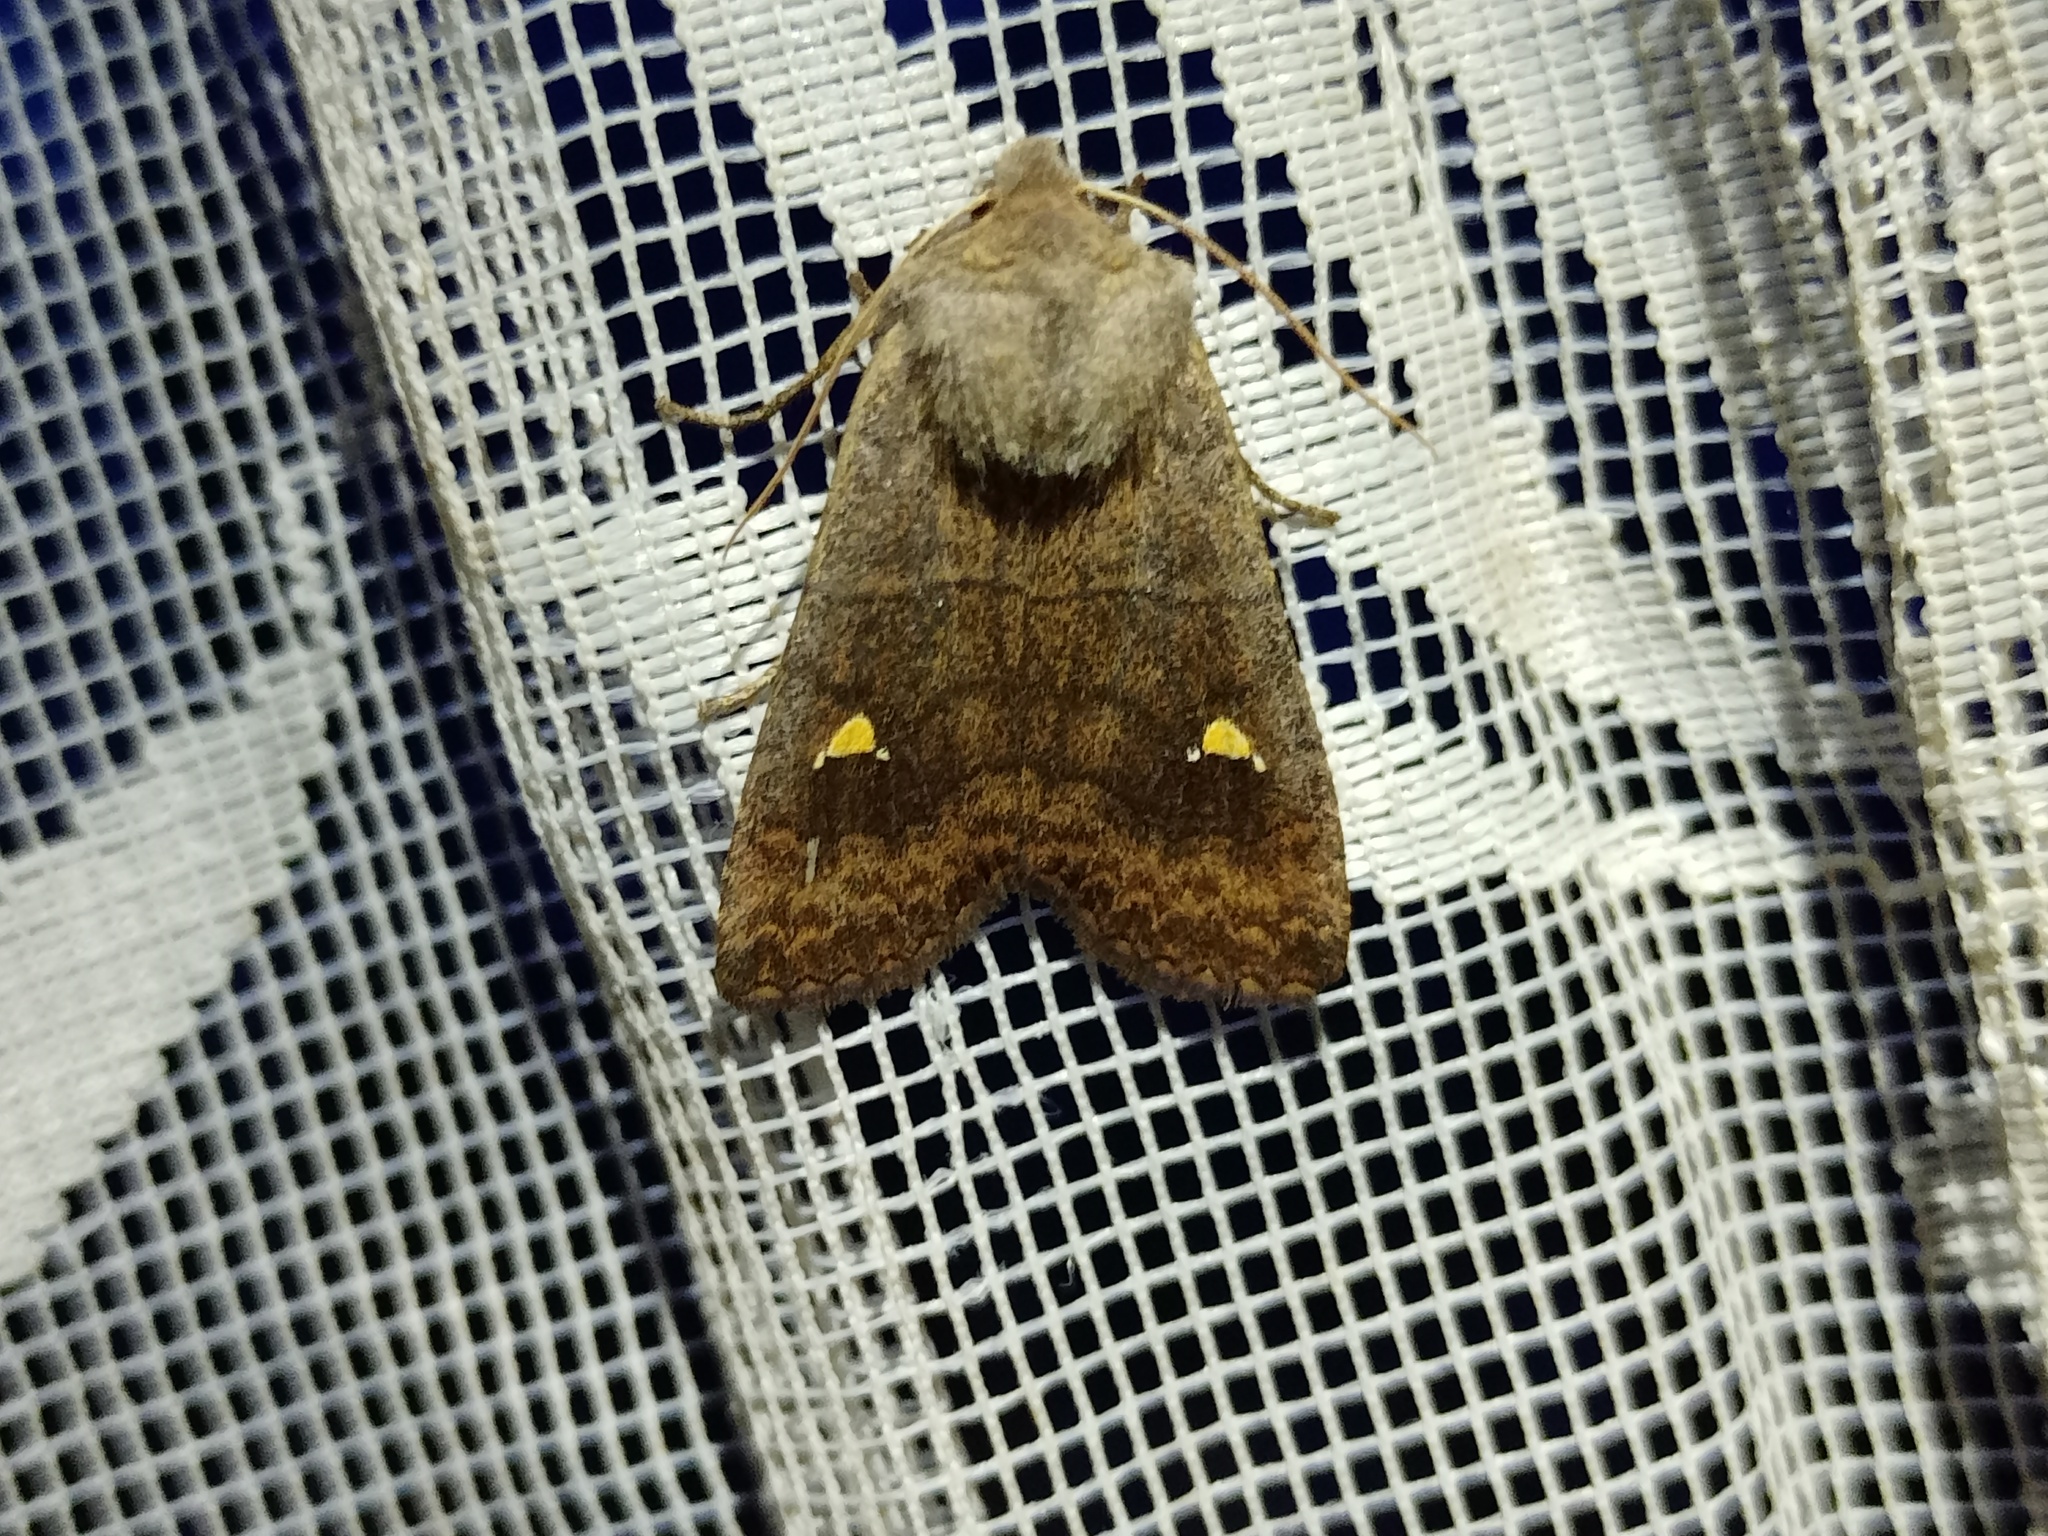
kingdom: Animalia
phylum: Arthropoda
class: Insecta
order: Lepidoptera
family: Noctuidae
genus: Eupsilia
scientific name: Eupsilia transversa
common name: Satellite
